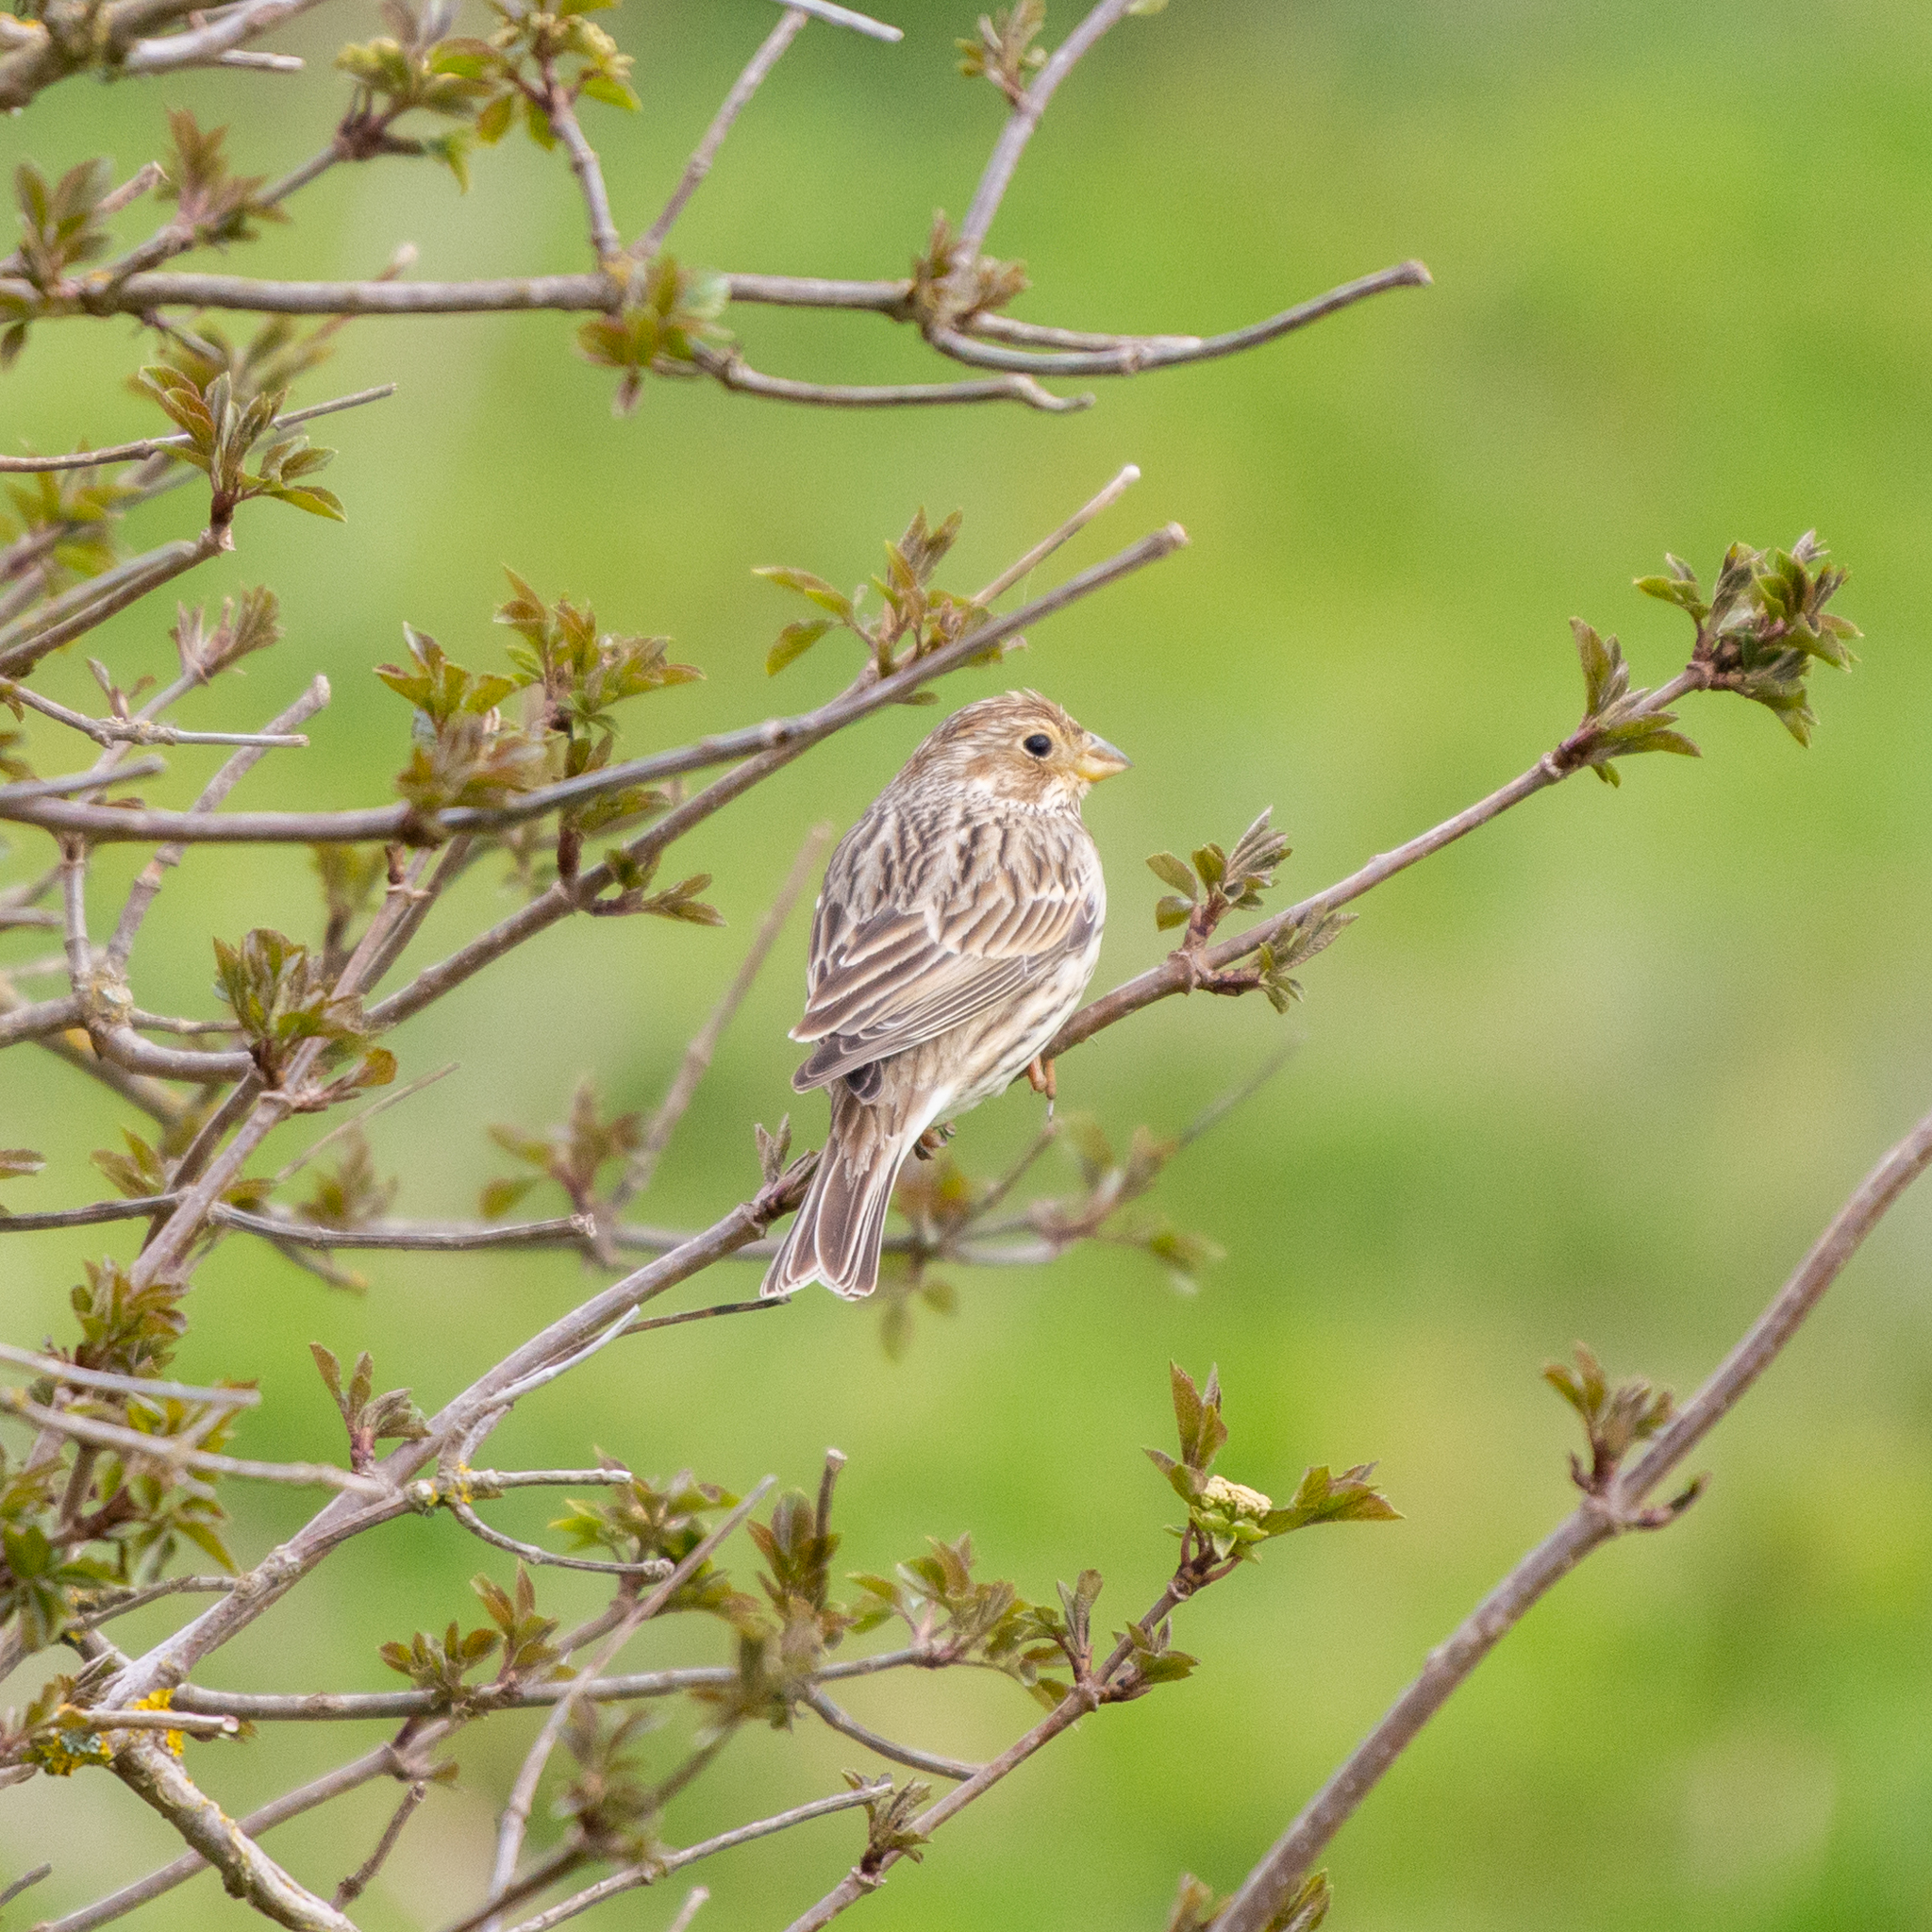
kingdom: Animalia
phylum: Chordata
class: Aves
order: Passeriformes
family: Emberizidae
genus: Emberiza
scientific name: Emberiza calandra
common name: Corn bunting
